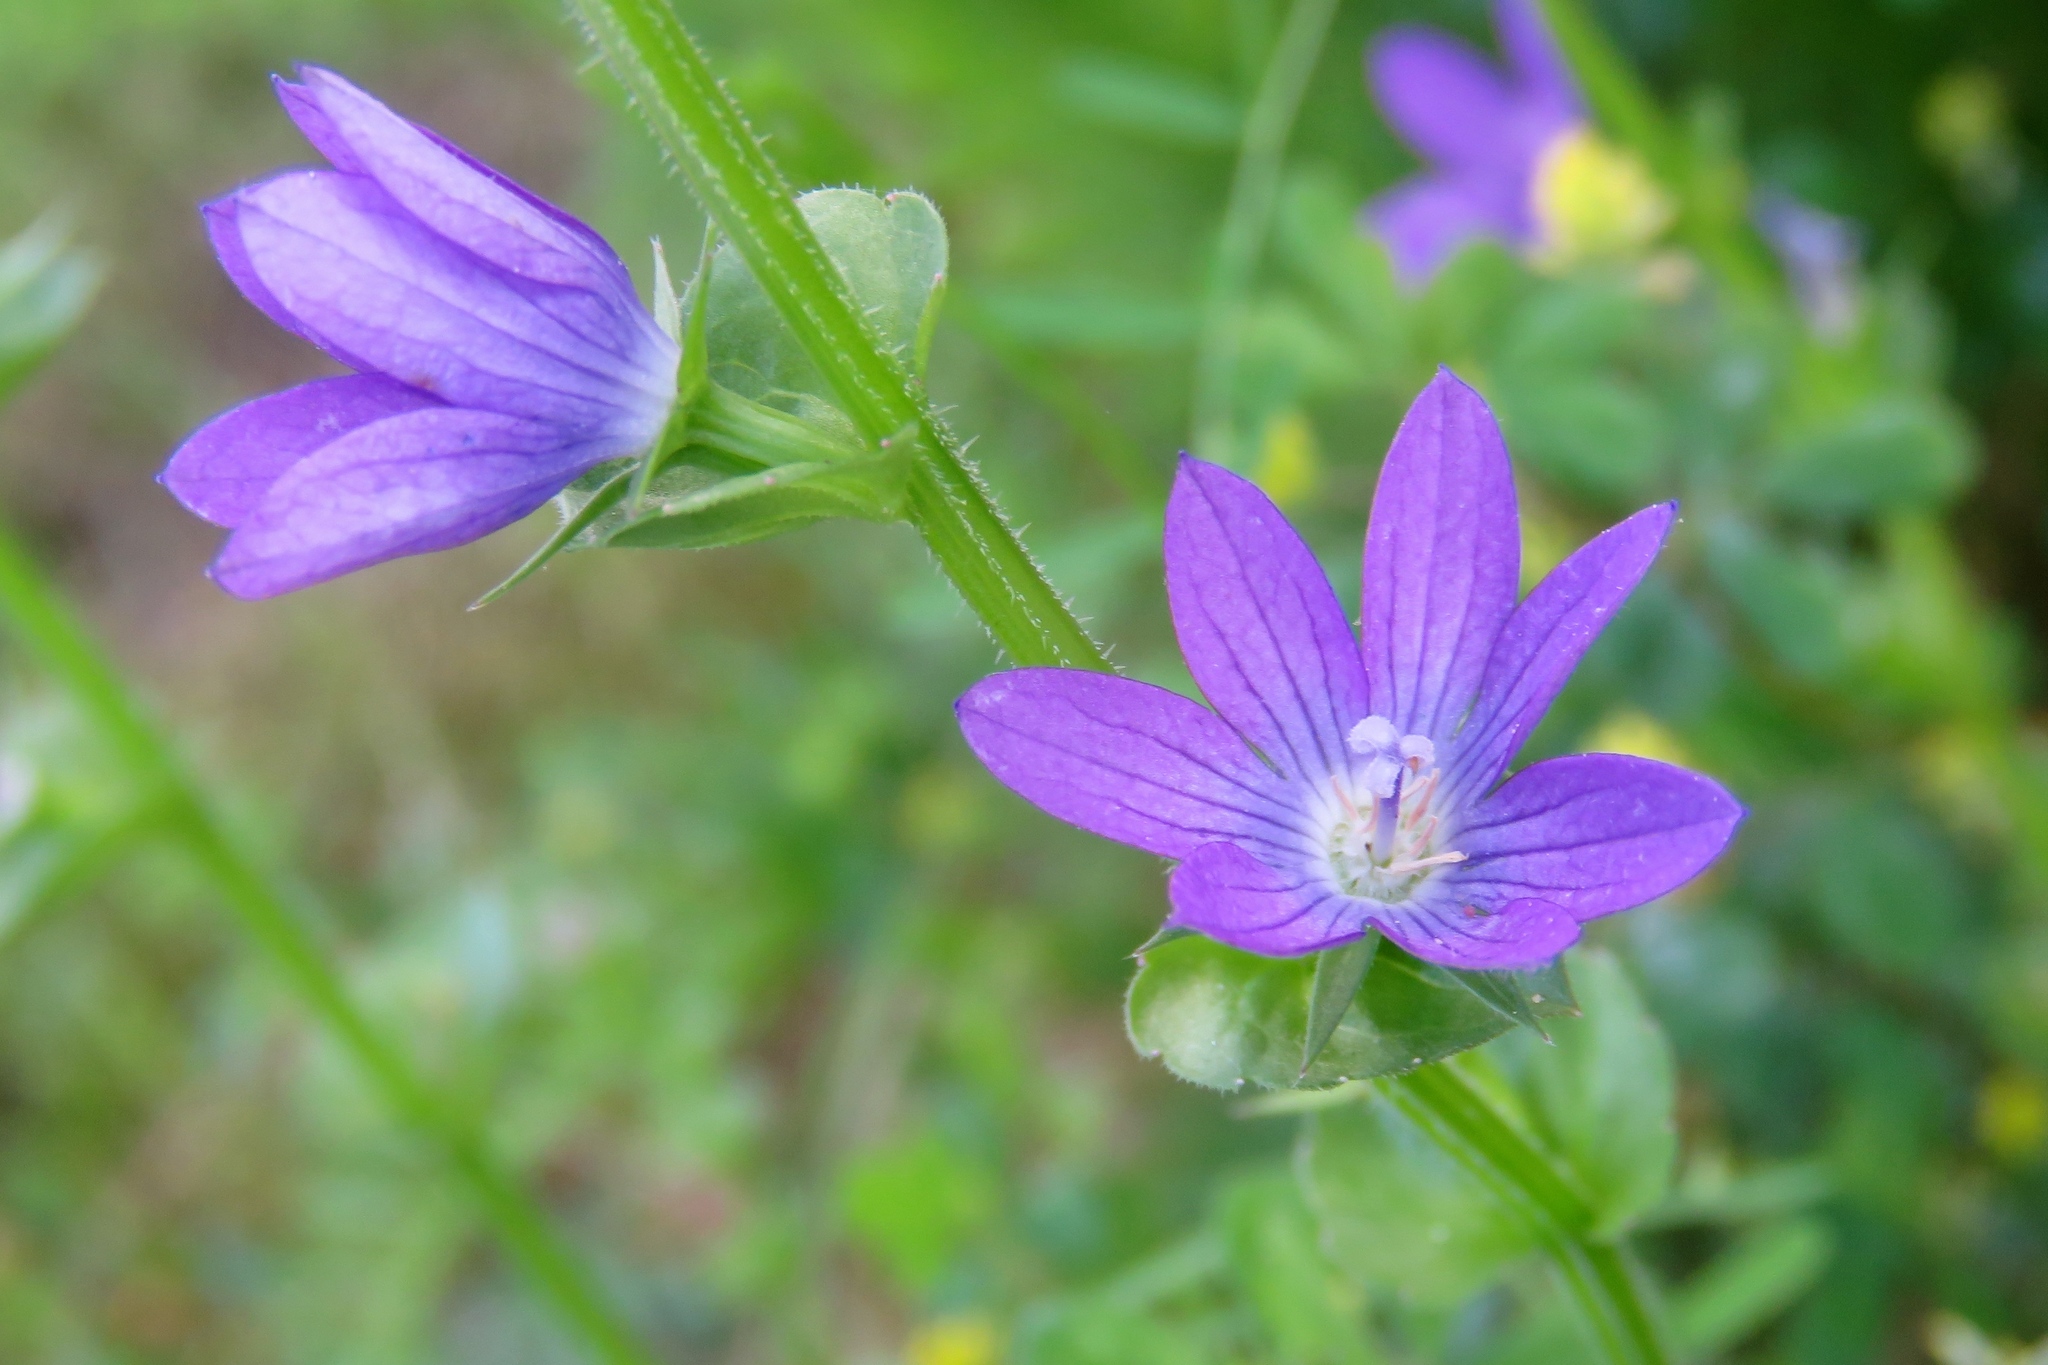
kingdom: Plantae
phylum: Tracheophyta
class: Magnoliopsida
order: Asterales
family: Campanulaceae
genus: Triodanis
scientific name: Triodanis perfoliata
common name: Clasping venus' looking-glass
